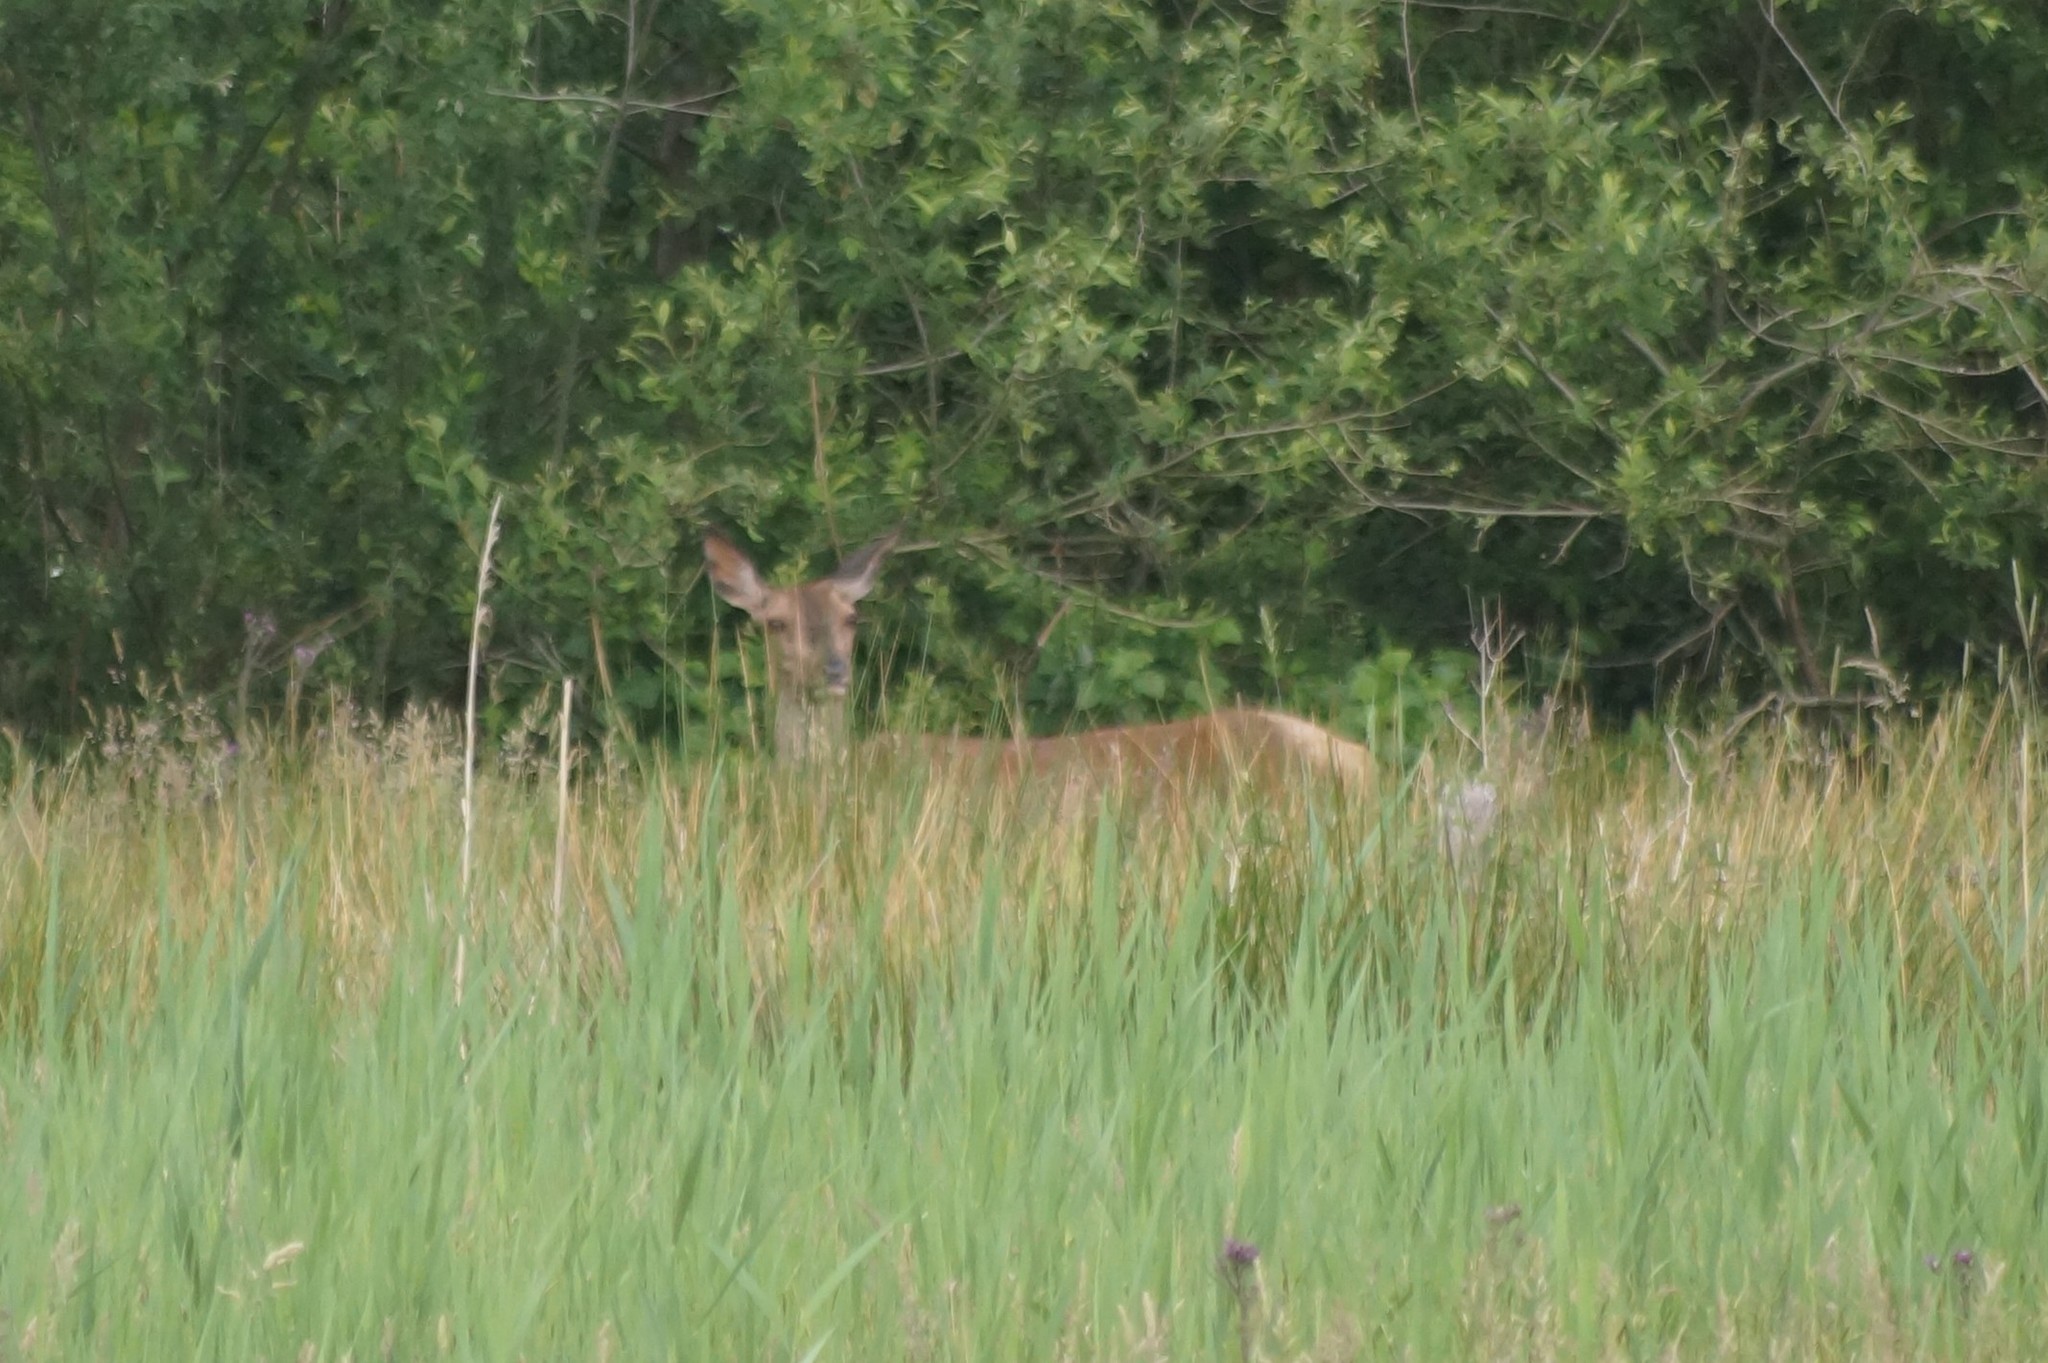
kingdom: Animalia
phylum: Chordata
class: Mammalia
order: Artiodactyla
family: Cervidae
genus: Cervus
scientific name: Cervus elaphus
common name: Red deer
